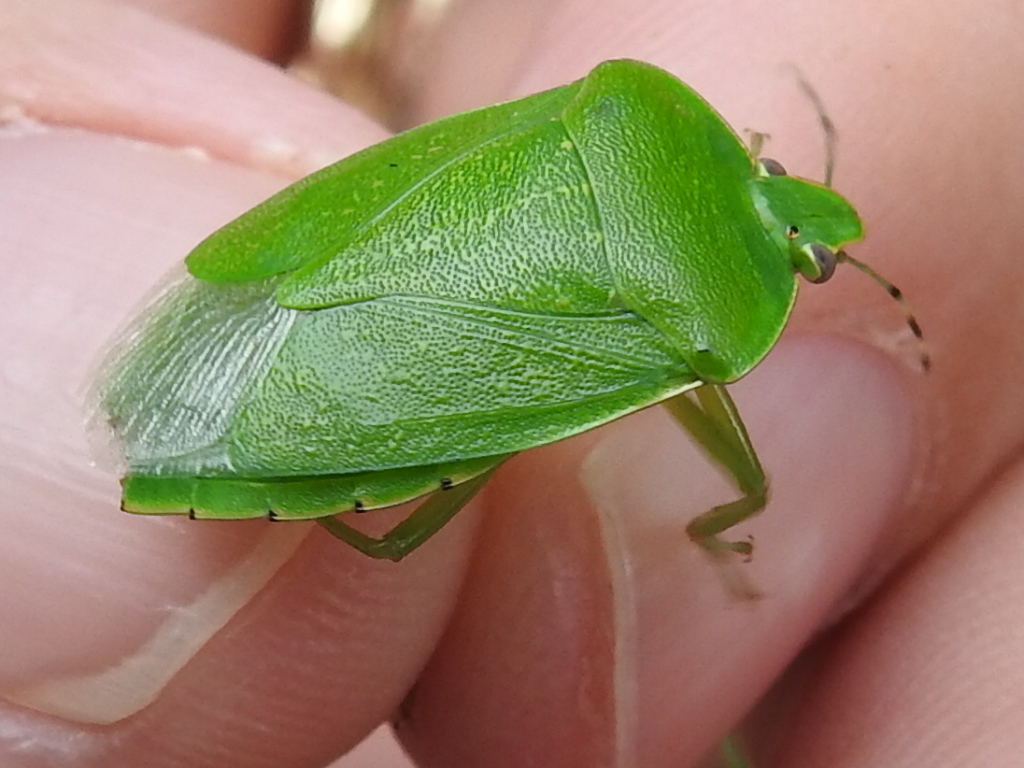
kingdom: Animalia
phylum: Arthropoda
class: Insecta
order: Hemiptera
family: Pentatomidae
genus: Chinavia
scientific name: Chinavia hilaris
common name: Green stink bug
